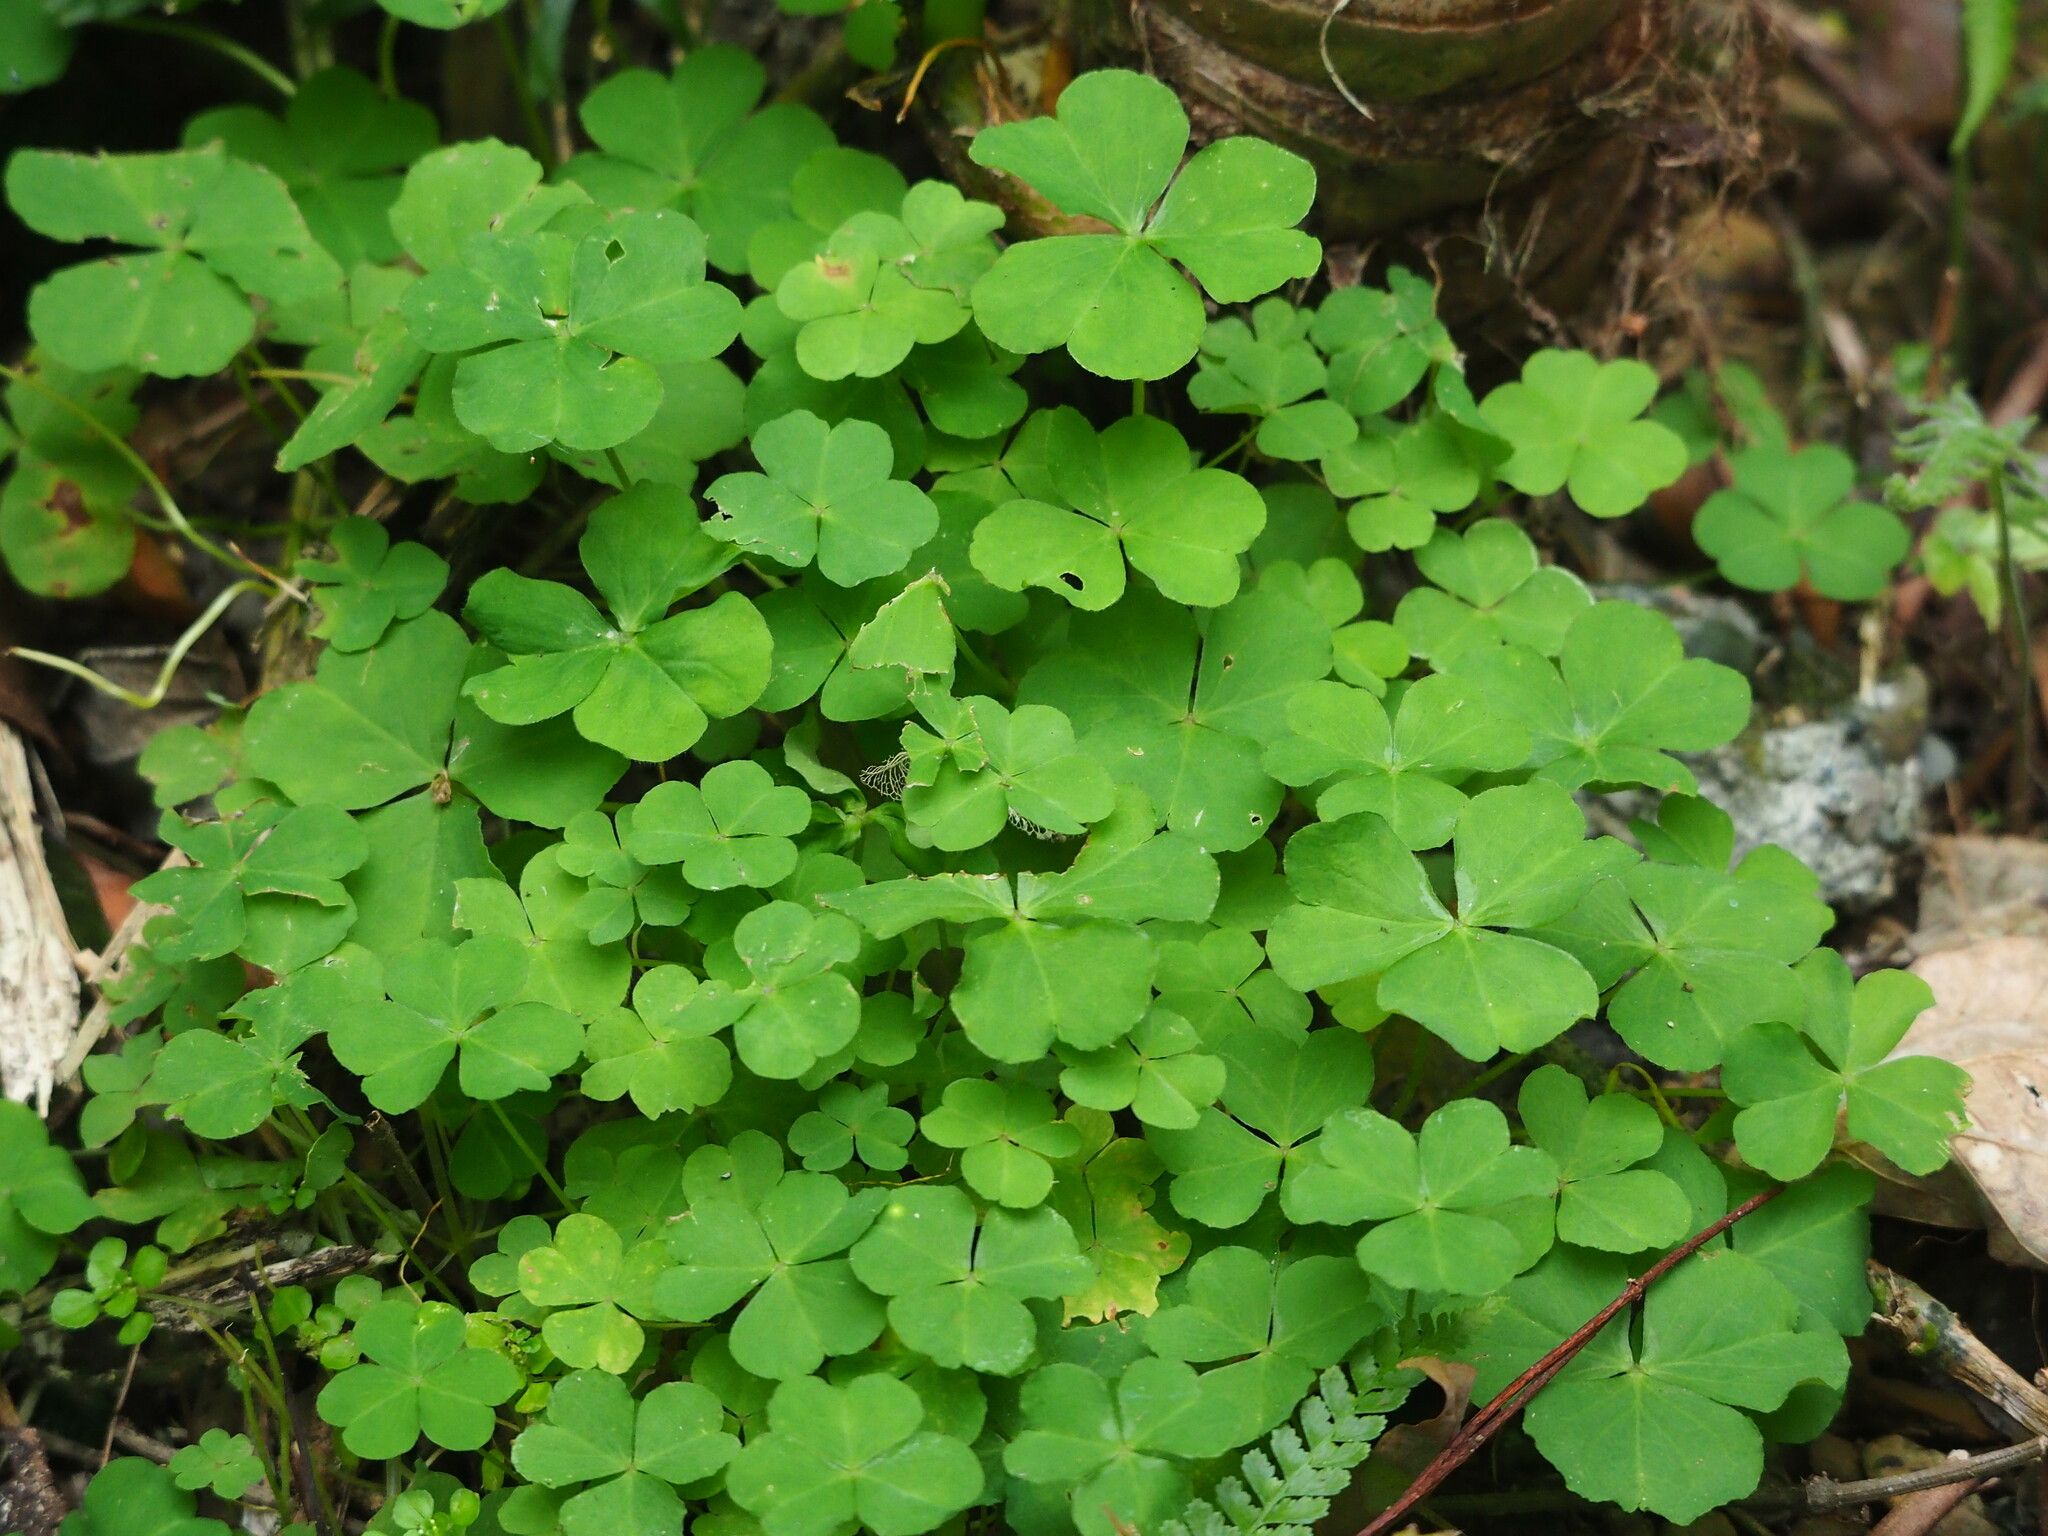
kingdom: Plantae
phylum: Tracheophyta
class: Magnoliopsida
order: Oxalidales
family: Oxalidaceae
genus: Oxalis
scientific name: Oxalis debilis
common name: Large-flowered pink-sorrel
